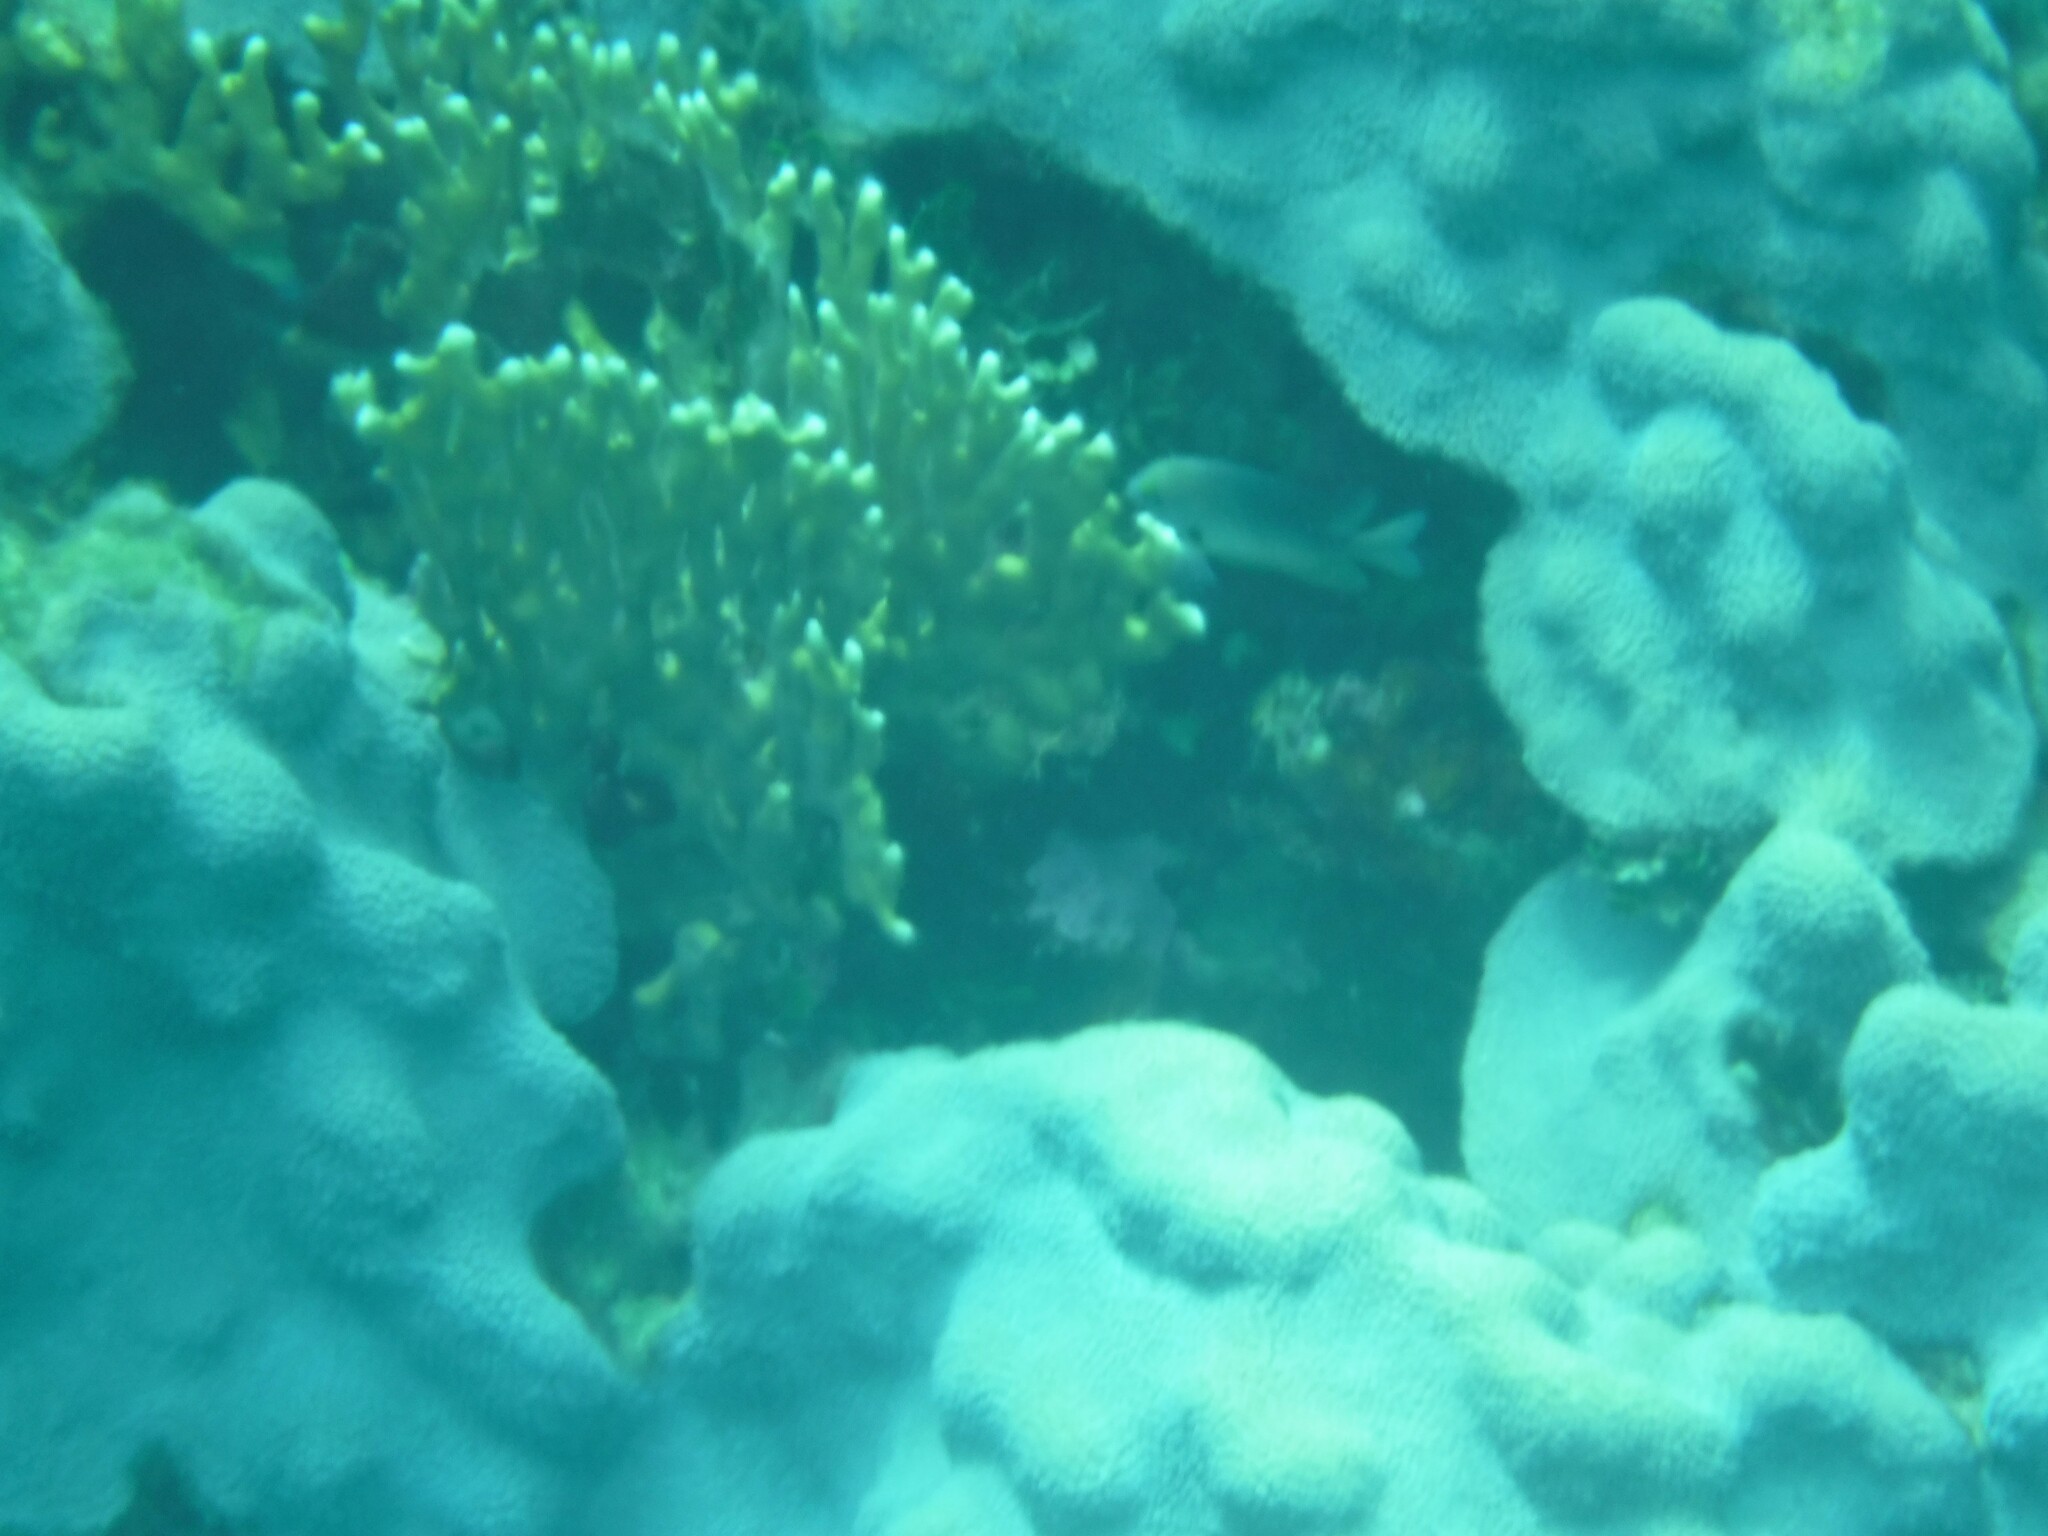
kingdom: Animalia
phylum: Cnidaria
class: Hydrozoa
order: Anthoathecata
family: Milleporidae
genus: Millepora
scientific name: Millepora alcicornis
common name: Branching fire coral
